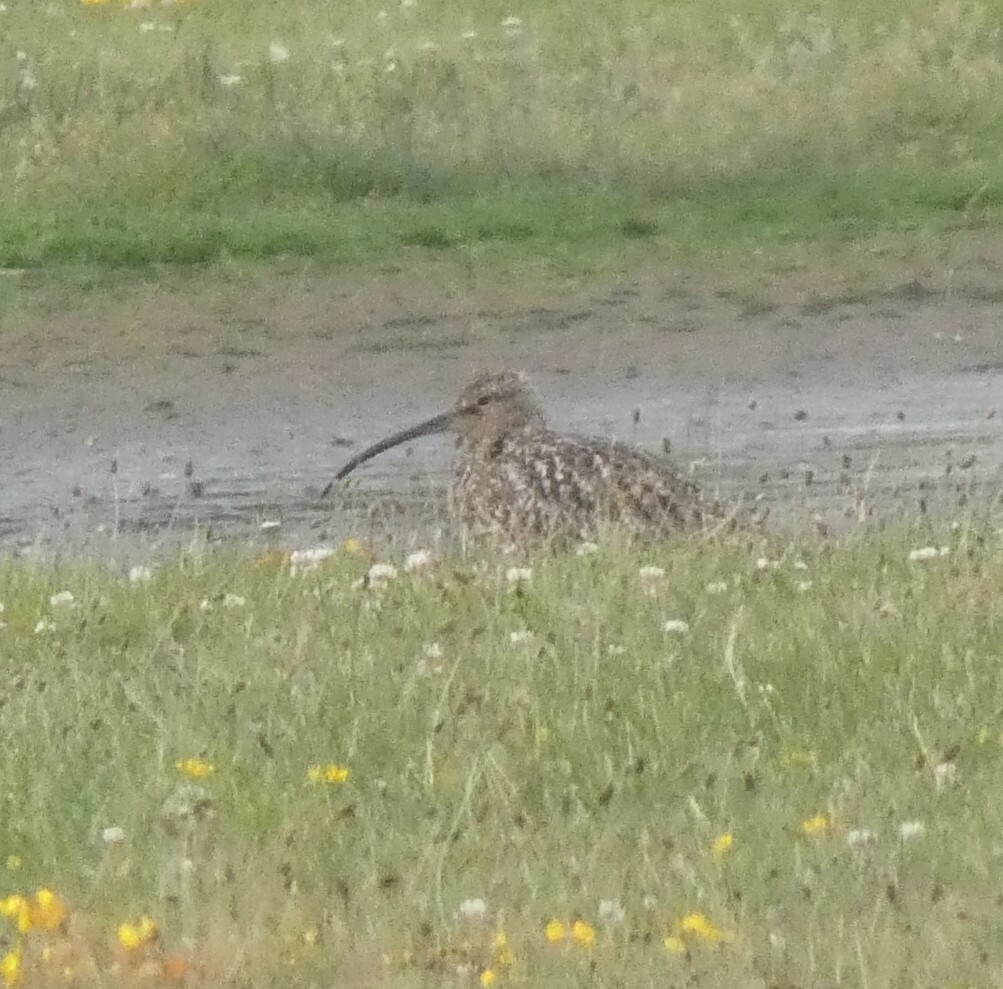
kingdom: Animalia
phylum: Chordata
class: Aves
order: Charadriiformes
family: Scolopacidae
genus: Numenius
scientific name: Numenius arquata
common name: Eurasian curlew
